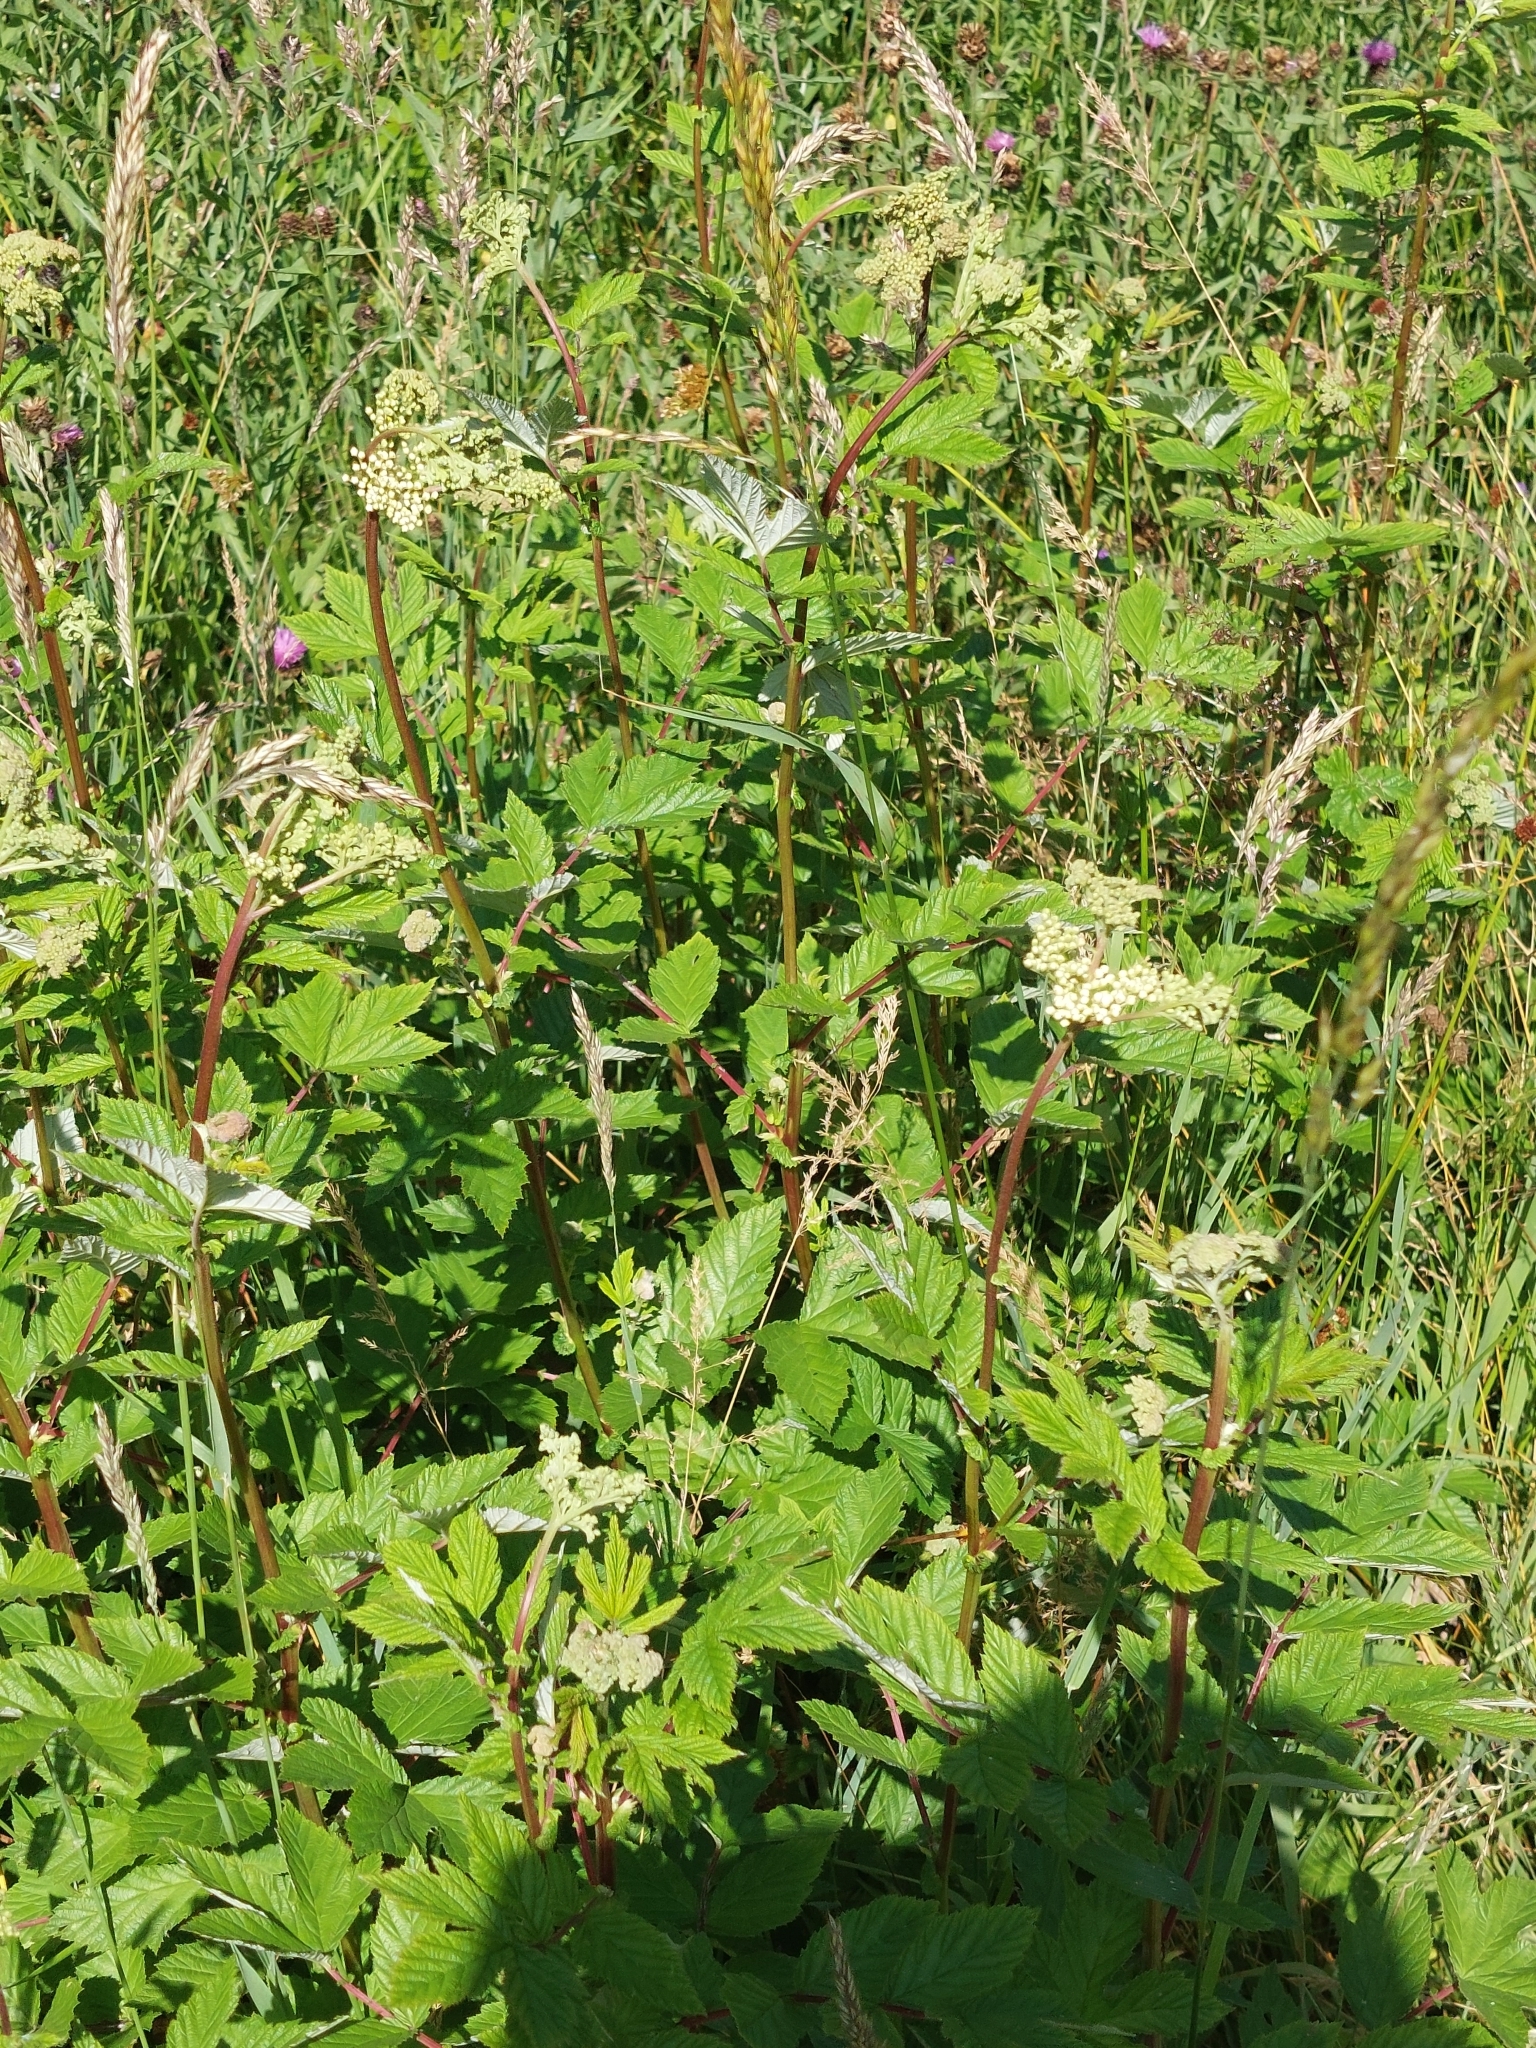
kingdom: Plantae
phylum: Tracheophyta
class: Magnoliopsida
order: Rosales
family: Rosaceae
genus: Filipendula
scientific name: Filipendula ulmaria
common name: Meadowsweet
